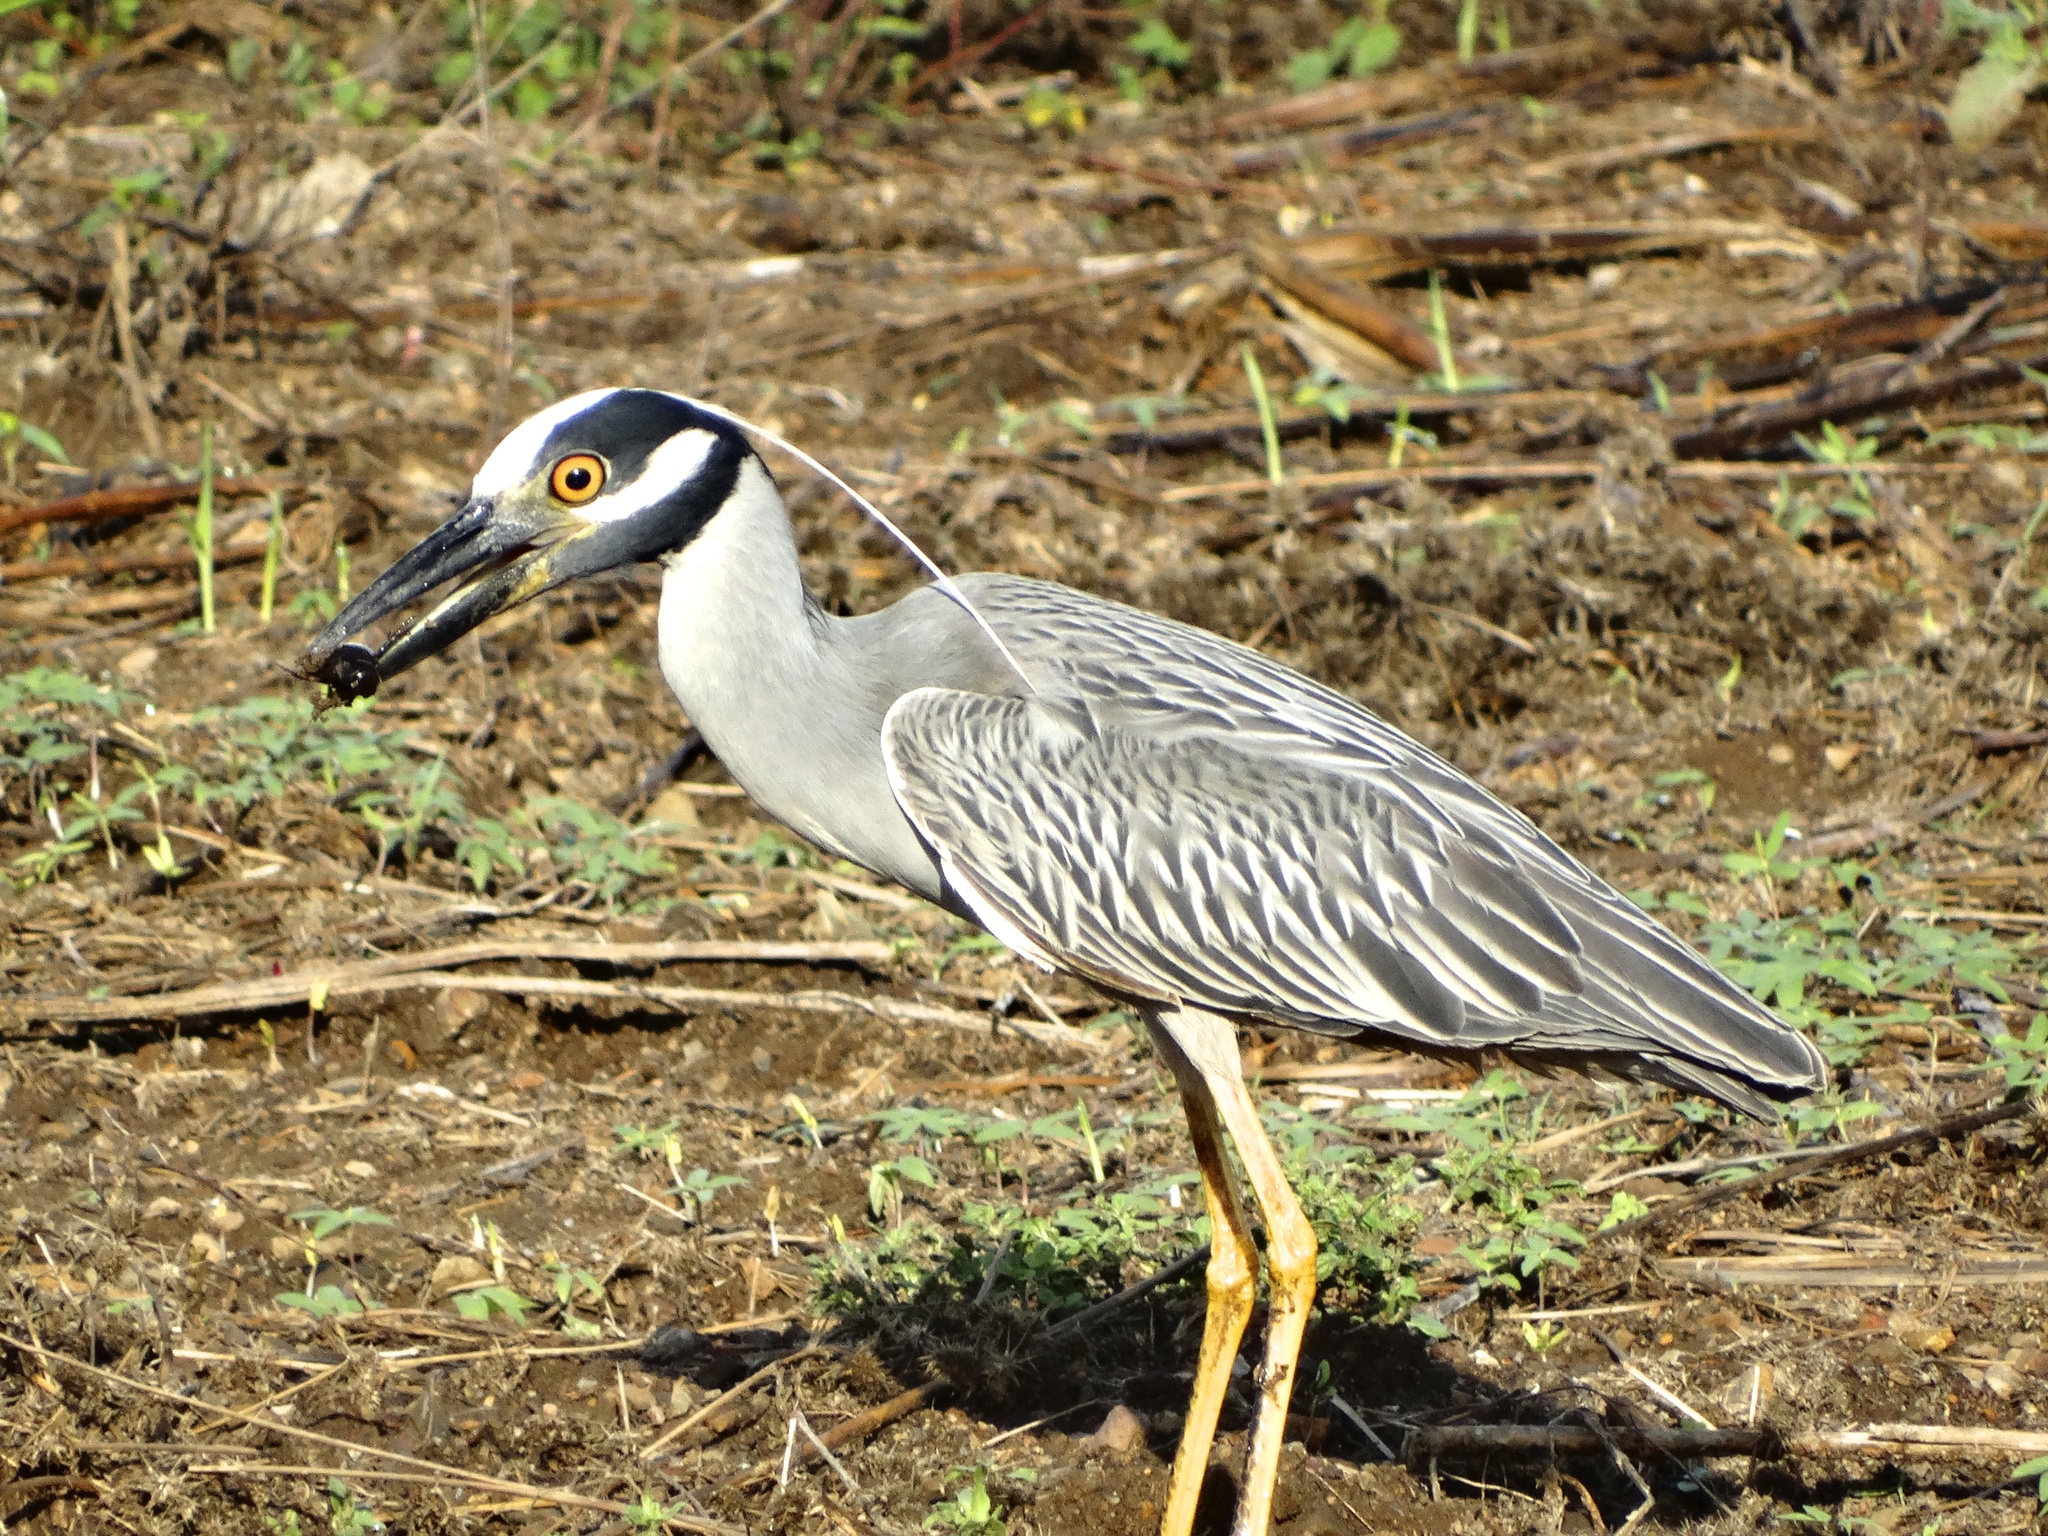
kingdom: Animalia
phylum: Chordata
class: Aves
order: Pelecaniformes
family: Ardeidae
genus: Nyctanassa
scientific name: Nyctanassa violacea
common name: Yellow-crowned night heron
